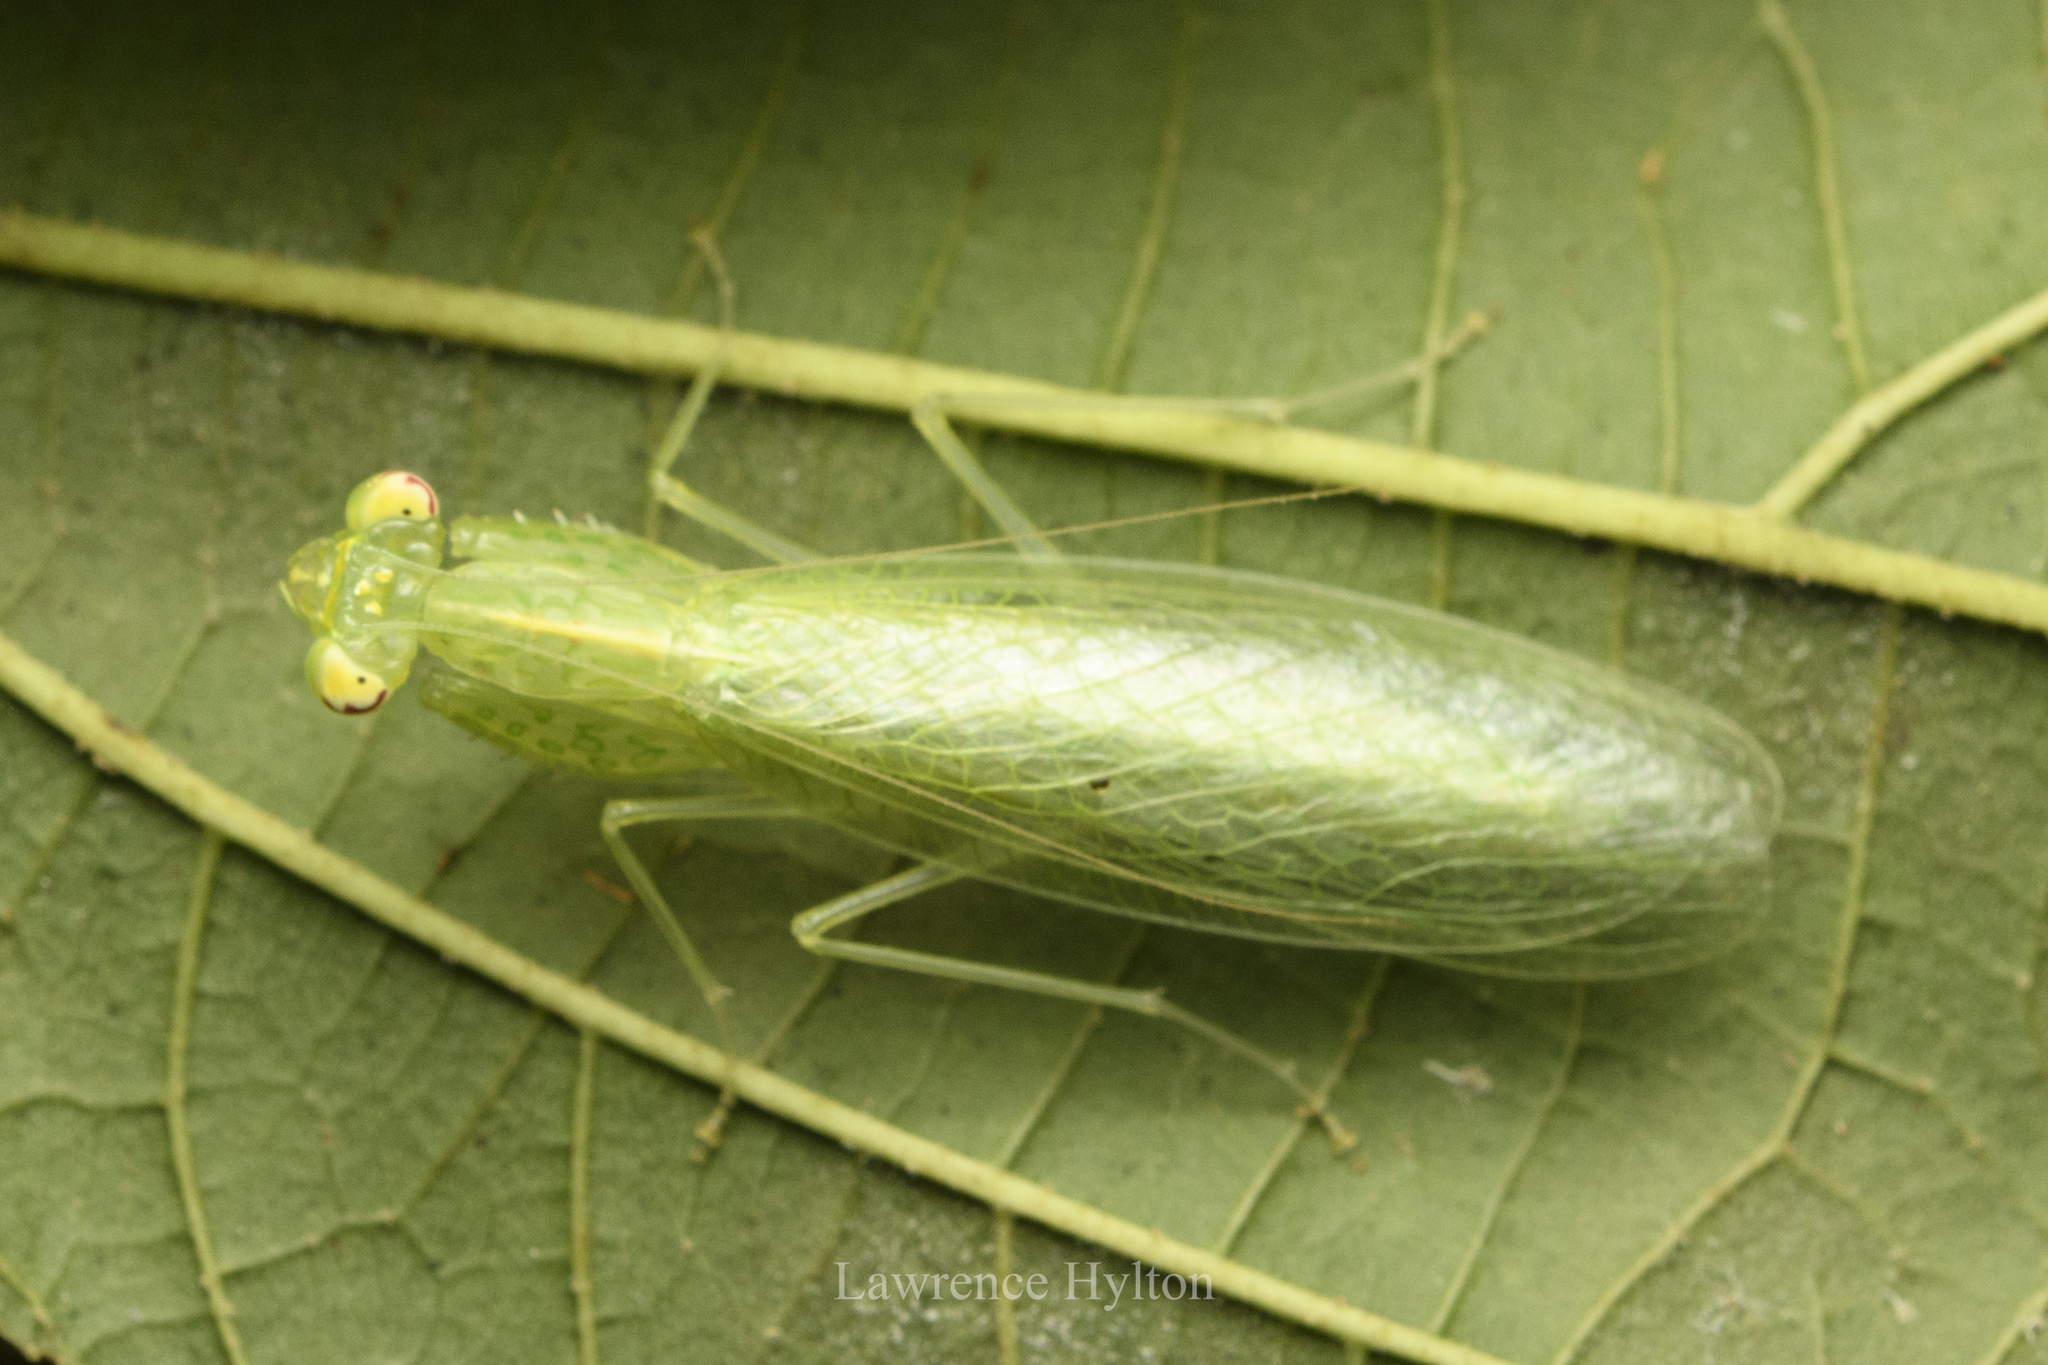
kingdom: Animalia
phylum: Arthropoda
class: Insecta
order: Mantodea
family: Nanomantidae
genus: Tropidomantis
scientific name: Tropidomantis gressitti
